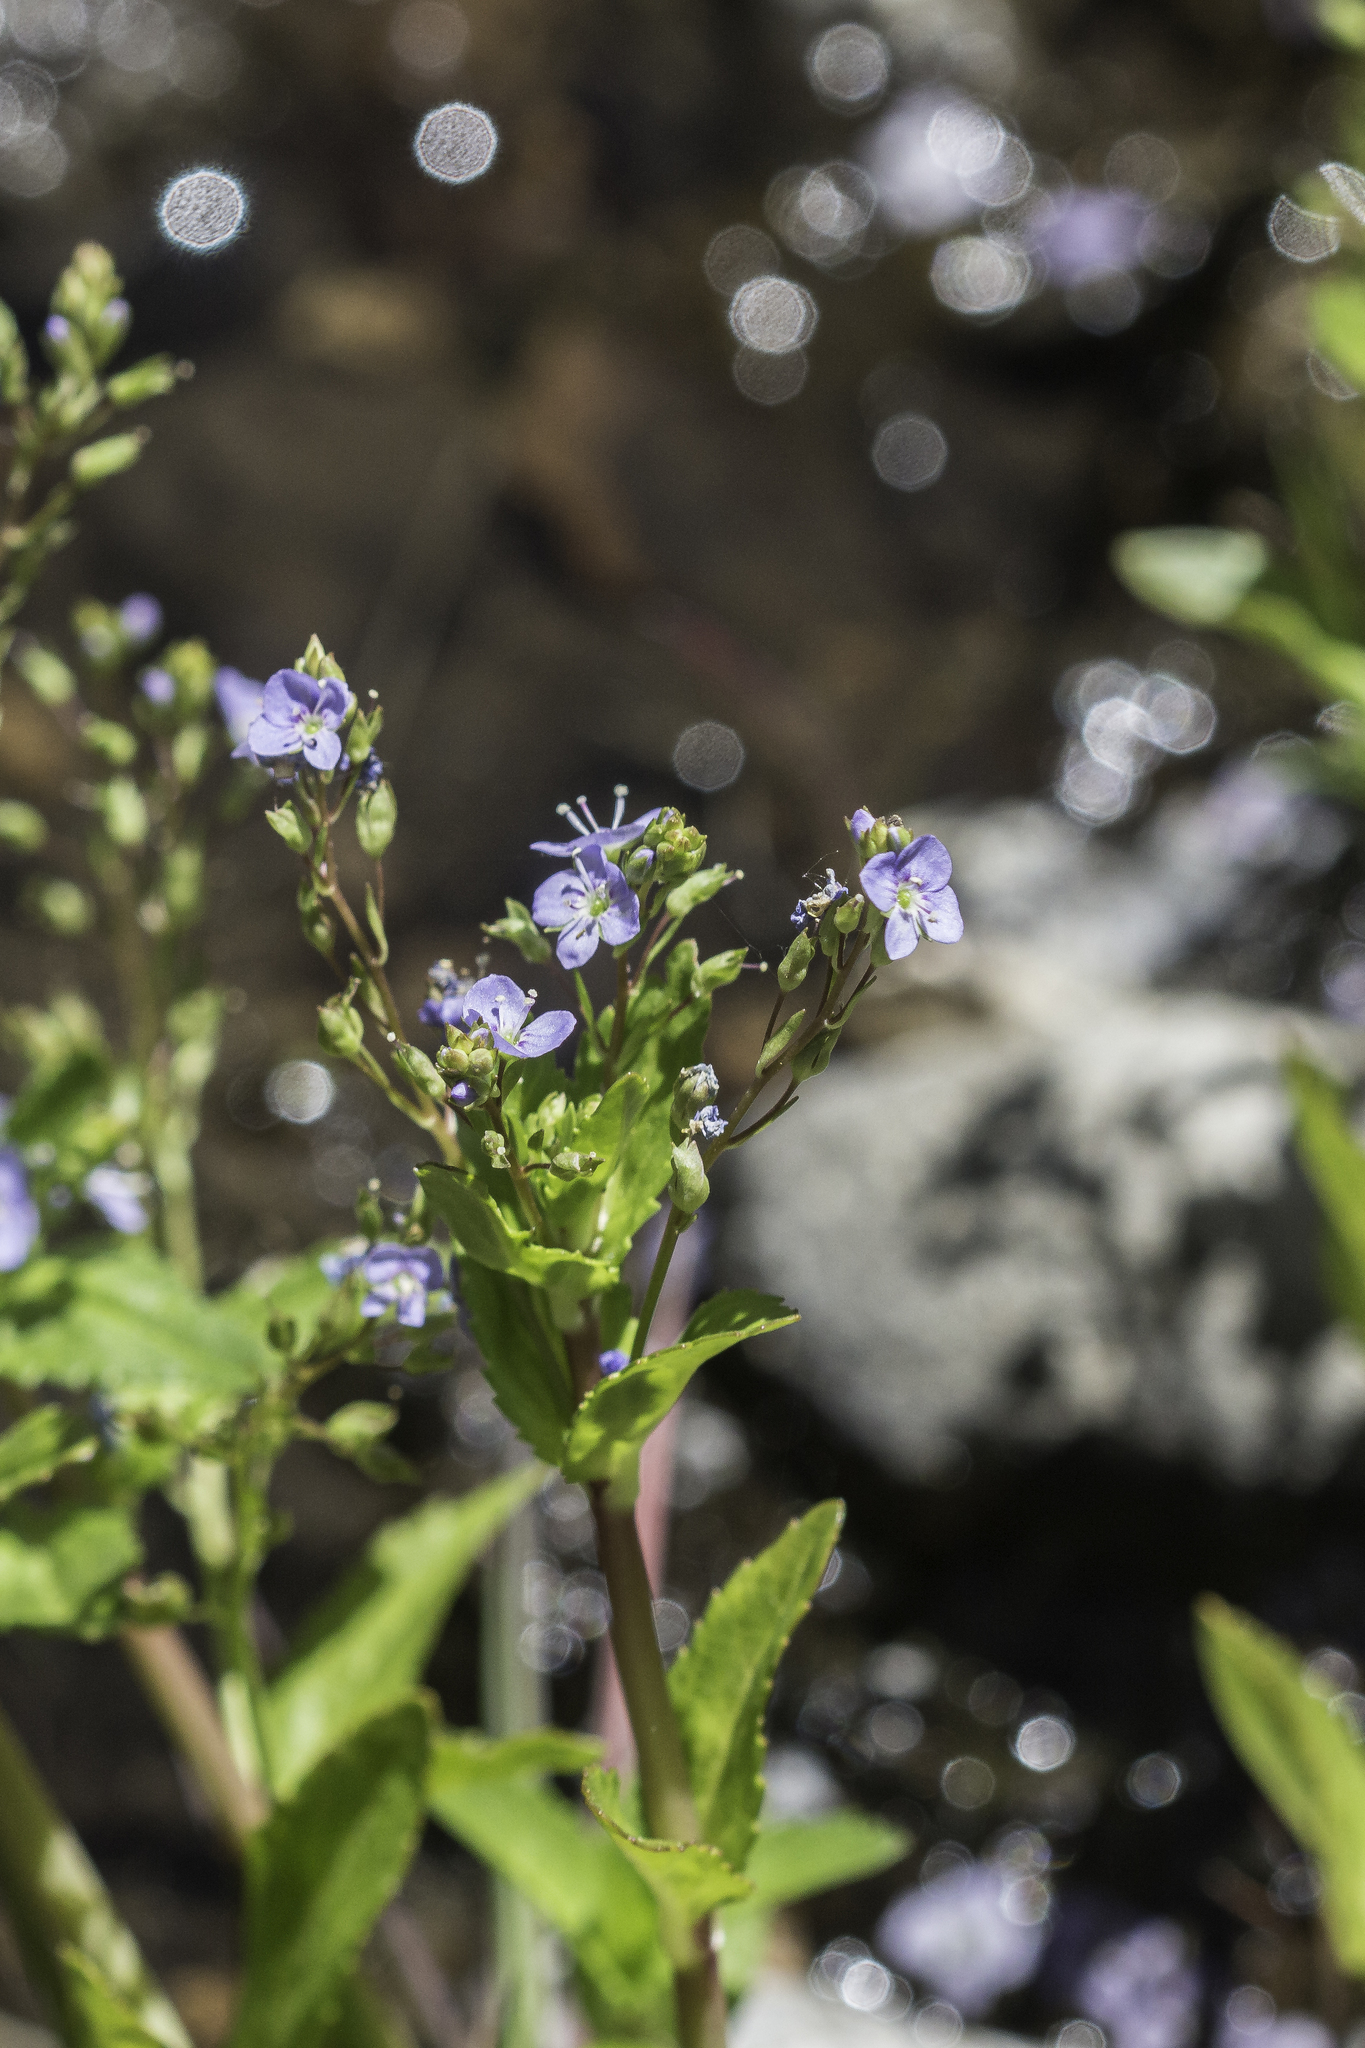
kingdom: Plantae
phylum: Tracheophyta
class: Magnoliopsida
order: Lamiales
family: Plantaginaceae
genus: Veronica
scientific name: Veronica americana
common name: American brooklime
